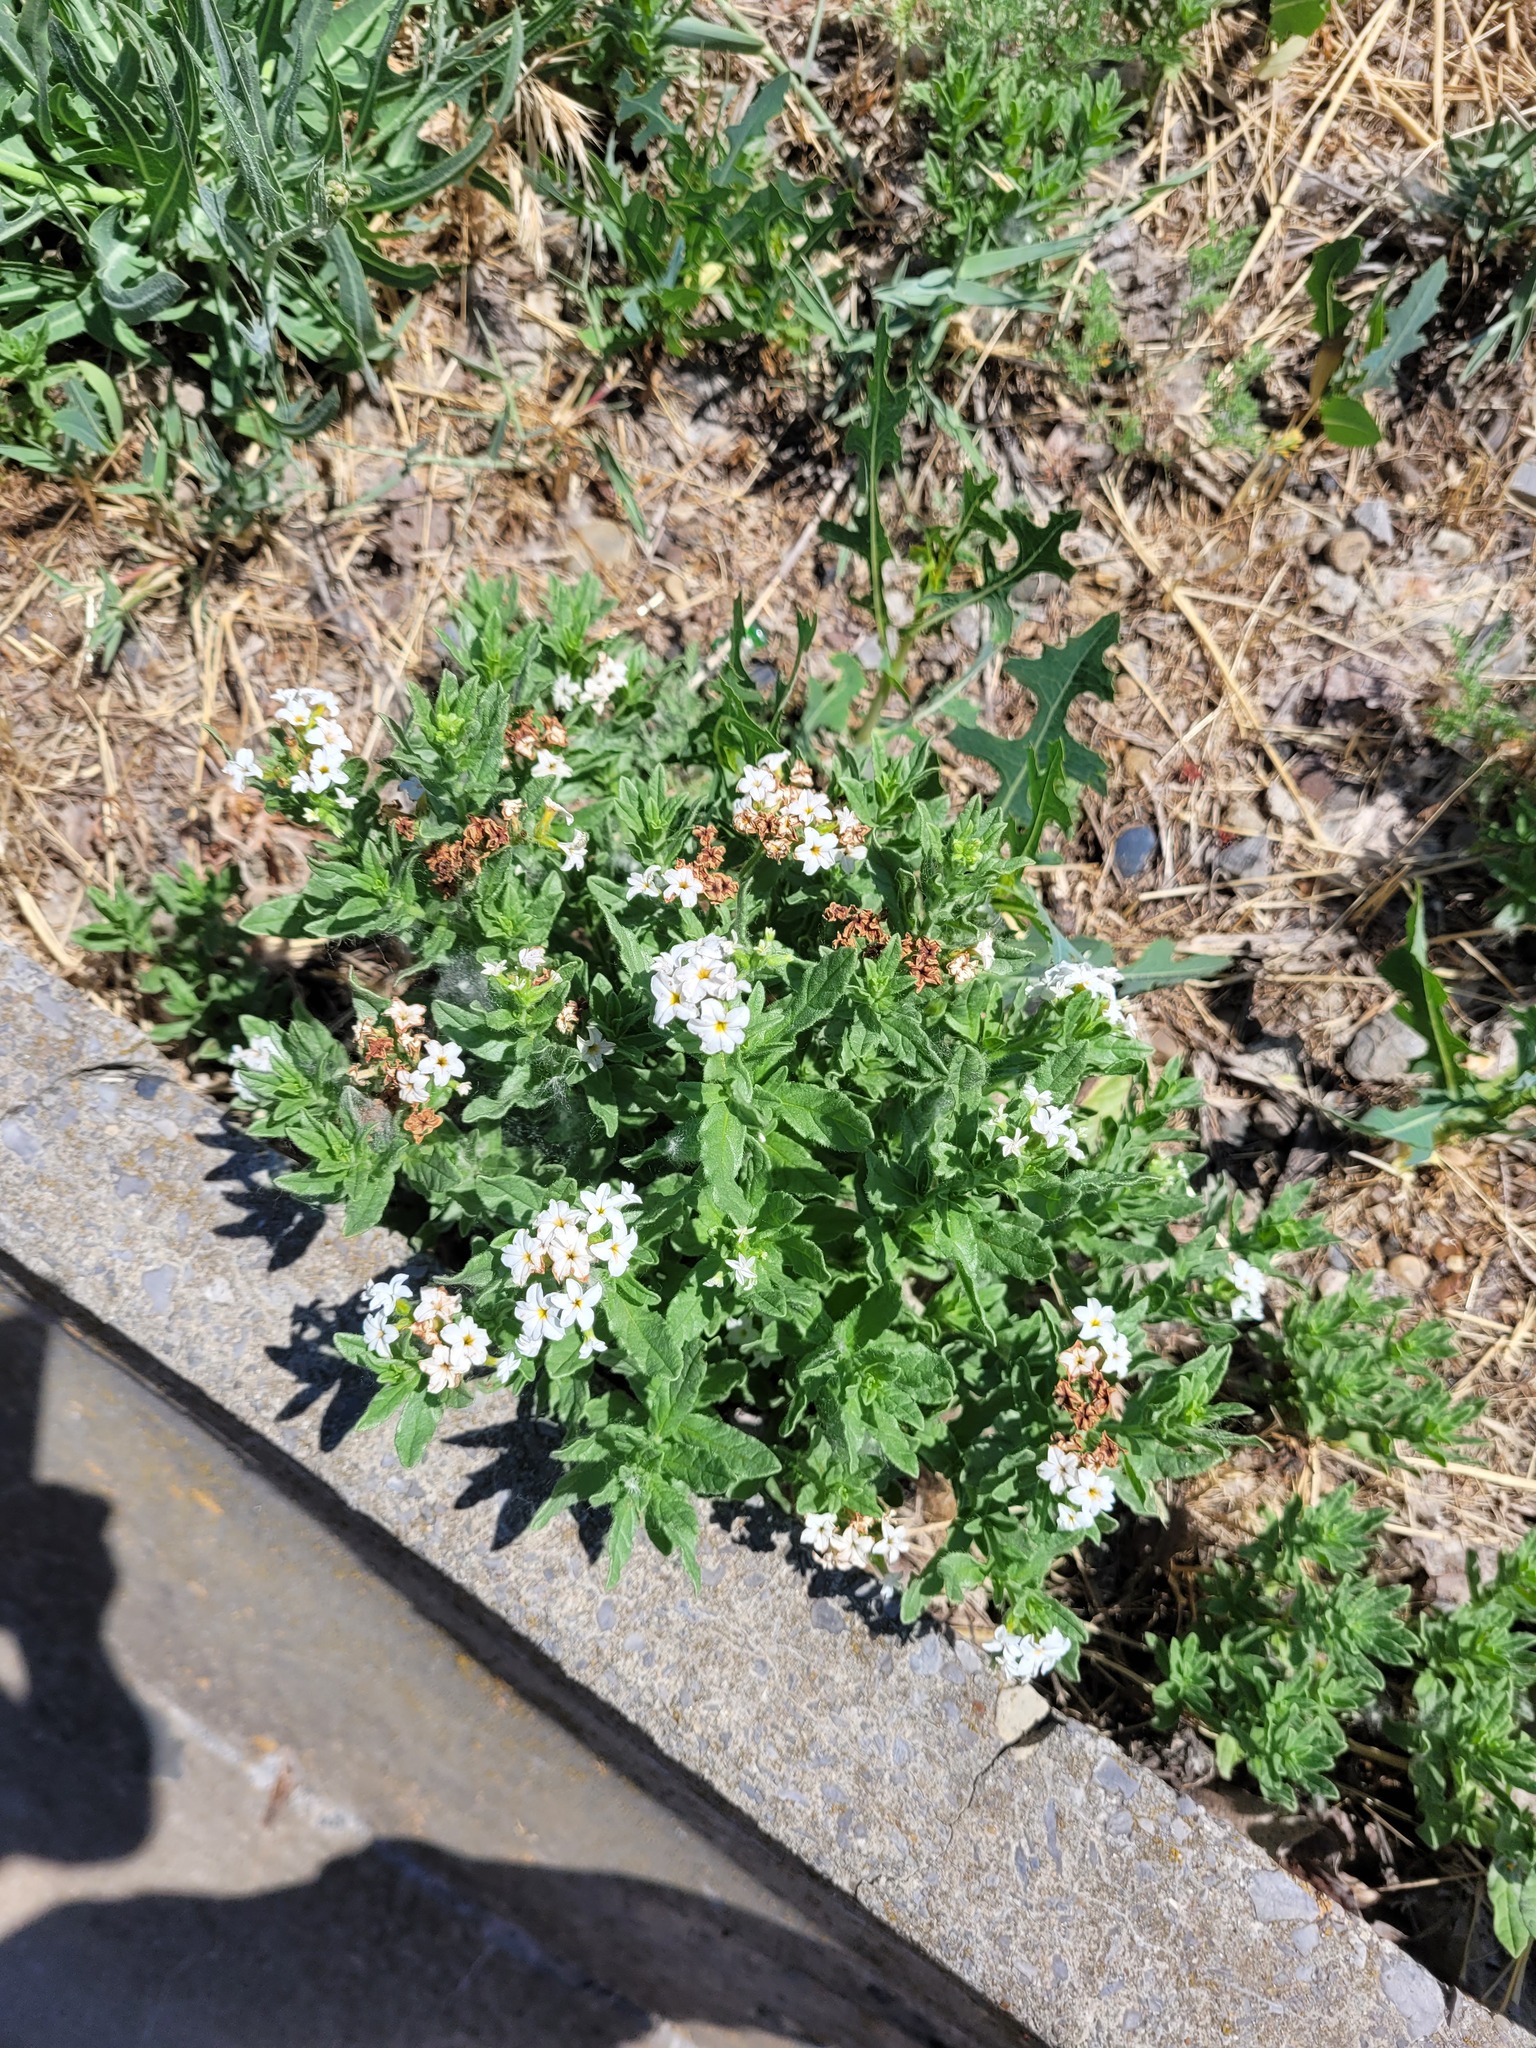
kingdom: Plantae
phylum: Tracheophyta
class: Magnoliopsida
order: Boraginales
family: Heliotropiaceae
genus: Tournefortia
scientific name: Tournefortia sibirica
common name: Siberian sea rosemary
